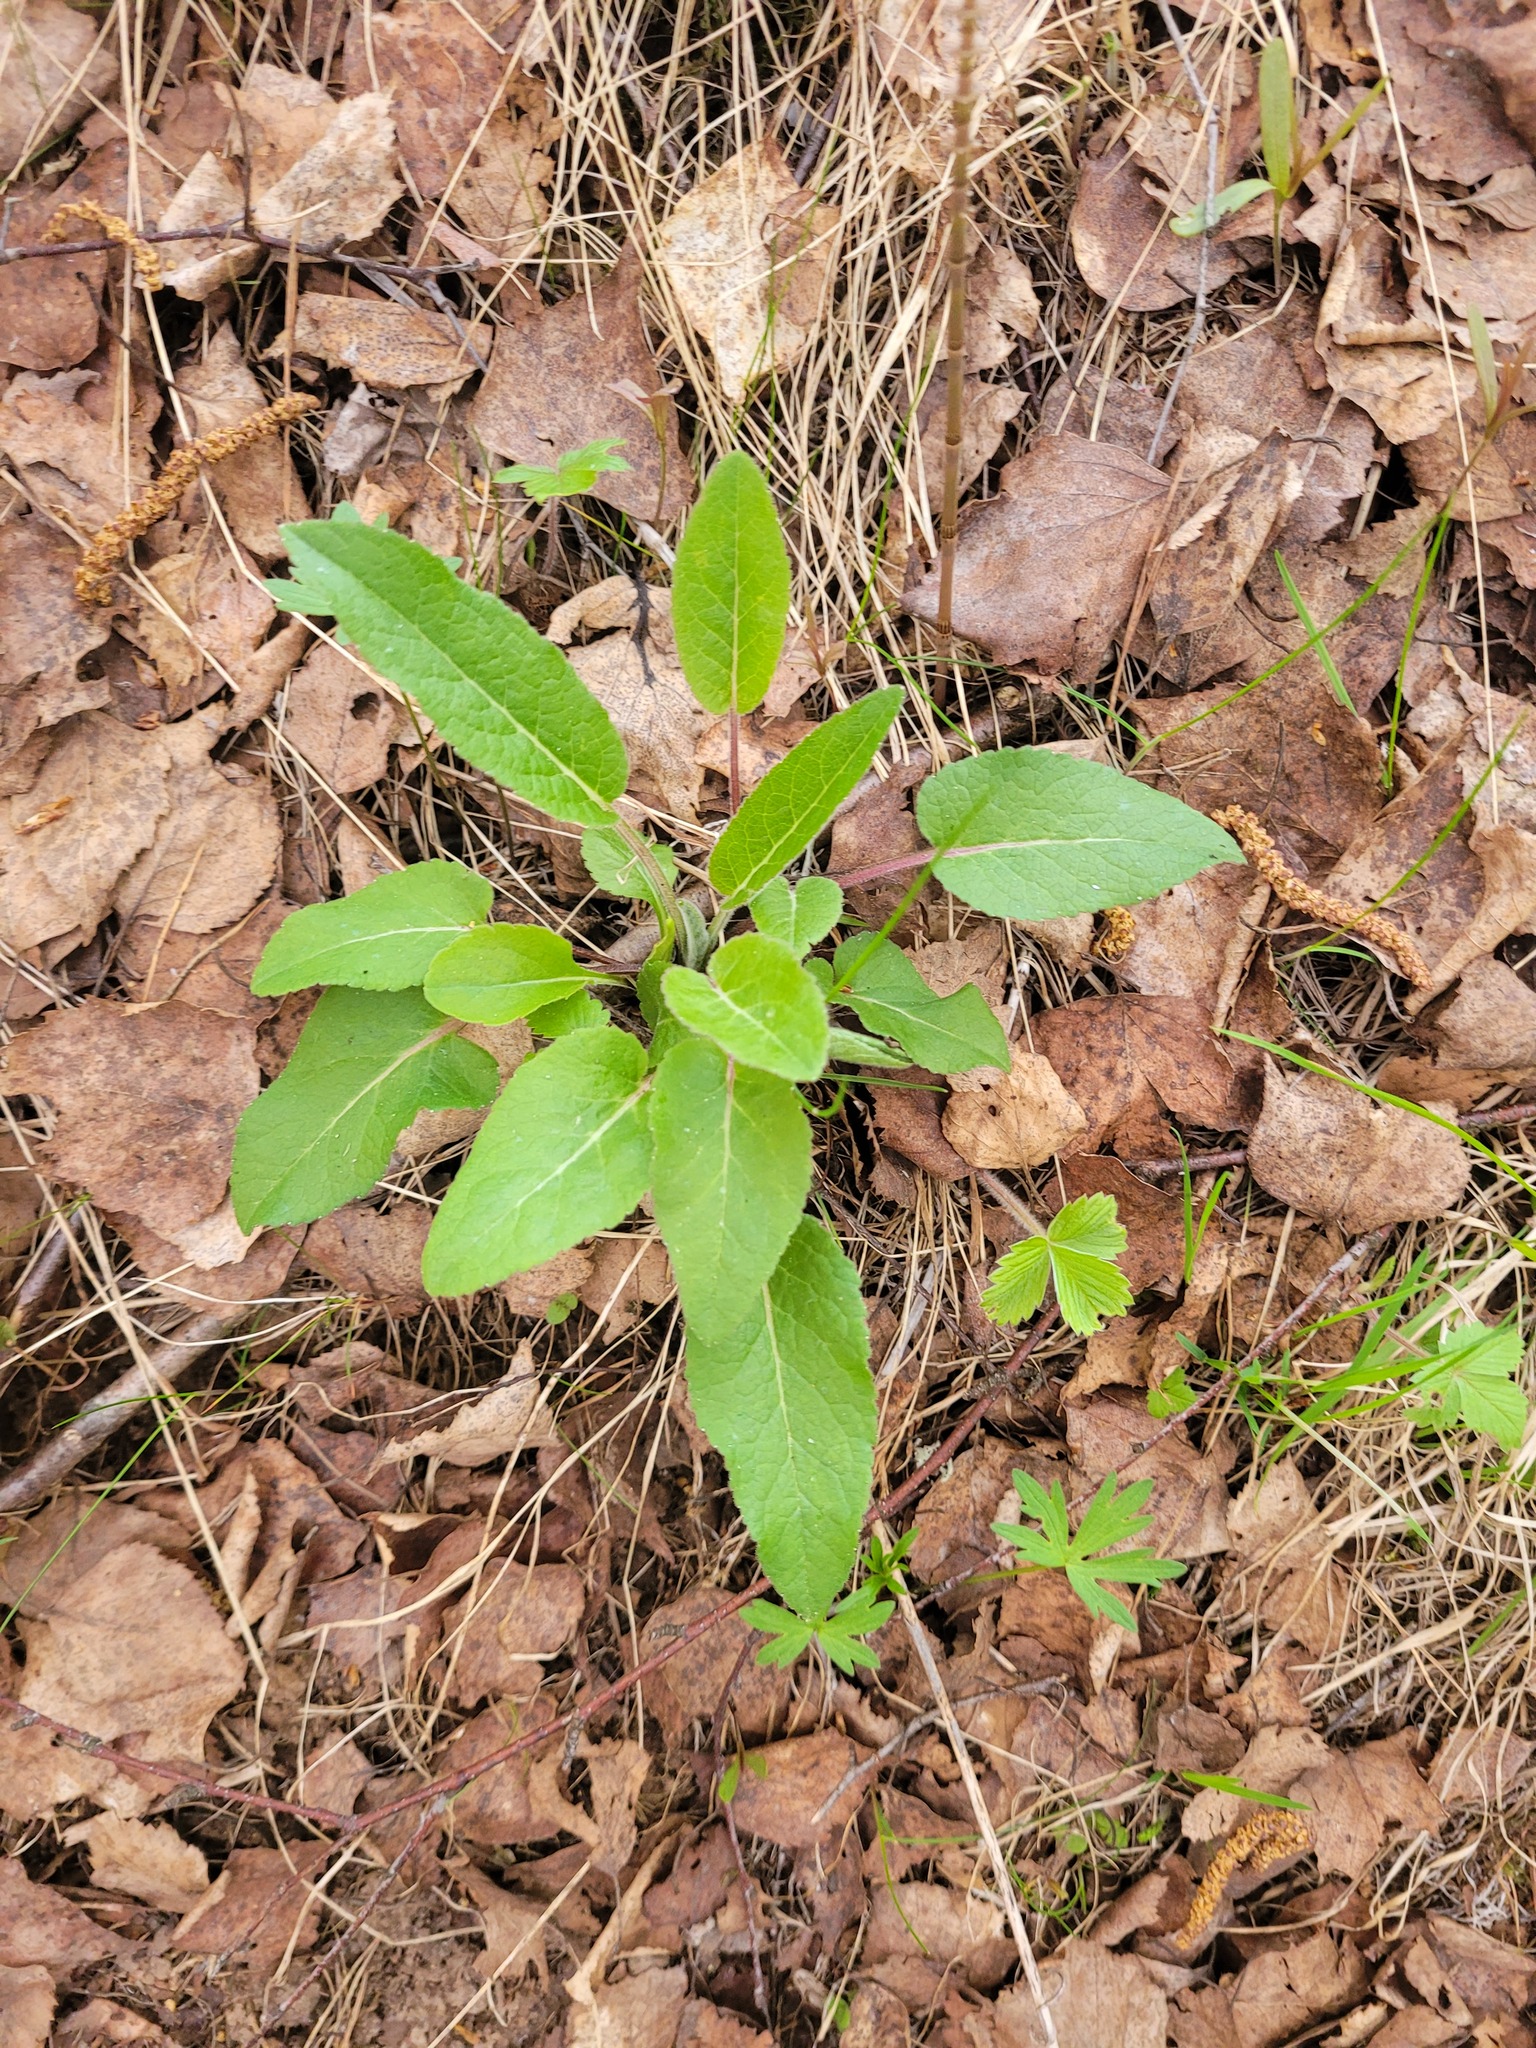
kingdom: Plantae
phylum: Tracheophyta
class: Magnoliopsida
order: Asterales
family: Campanulaceae
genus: Campanula
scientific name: Campanula glomerata
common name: Clustered bellflower
